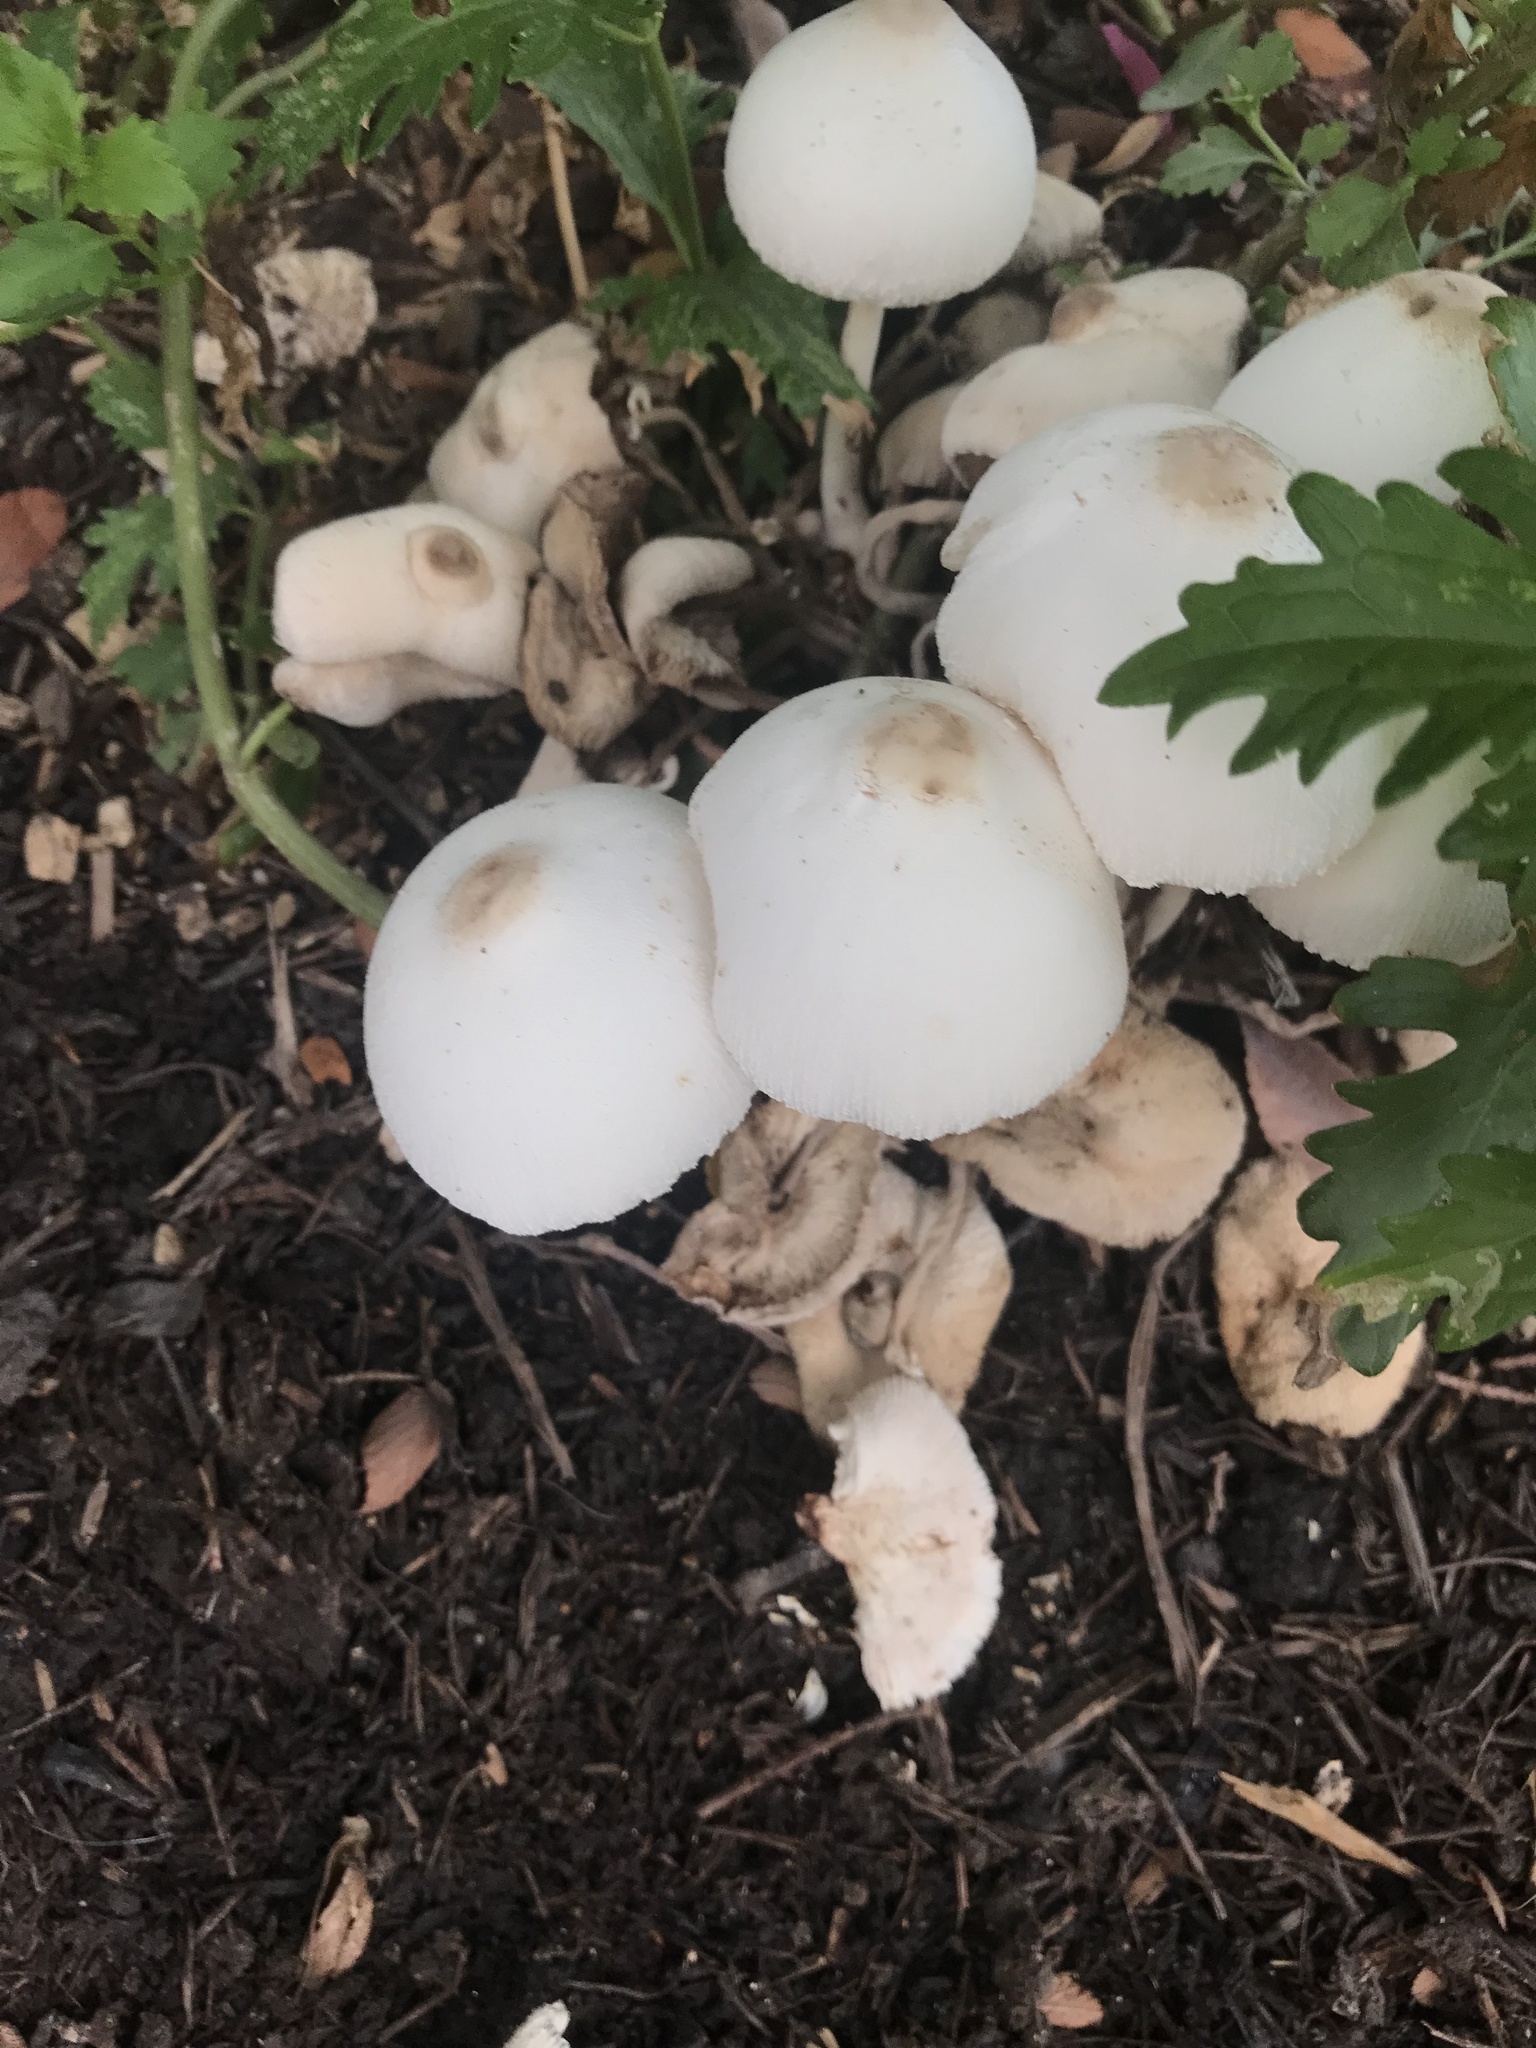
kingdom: Fungi
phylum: Basidiomycota
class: Agaricomycetes
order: Agaricales
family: Agaricaceae
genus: Leucocoprinus
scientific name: Leucocoprinus cepistipes
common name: Onion-stalk parasol
